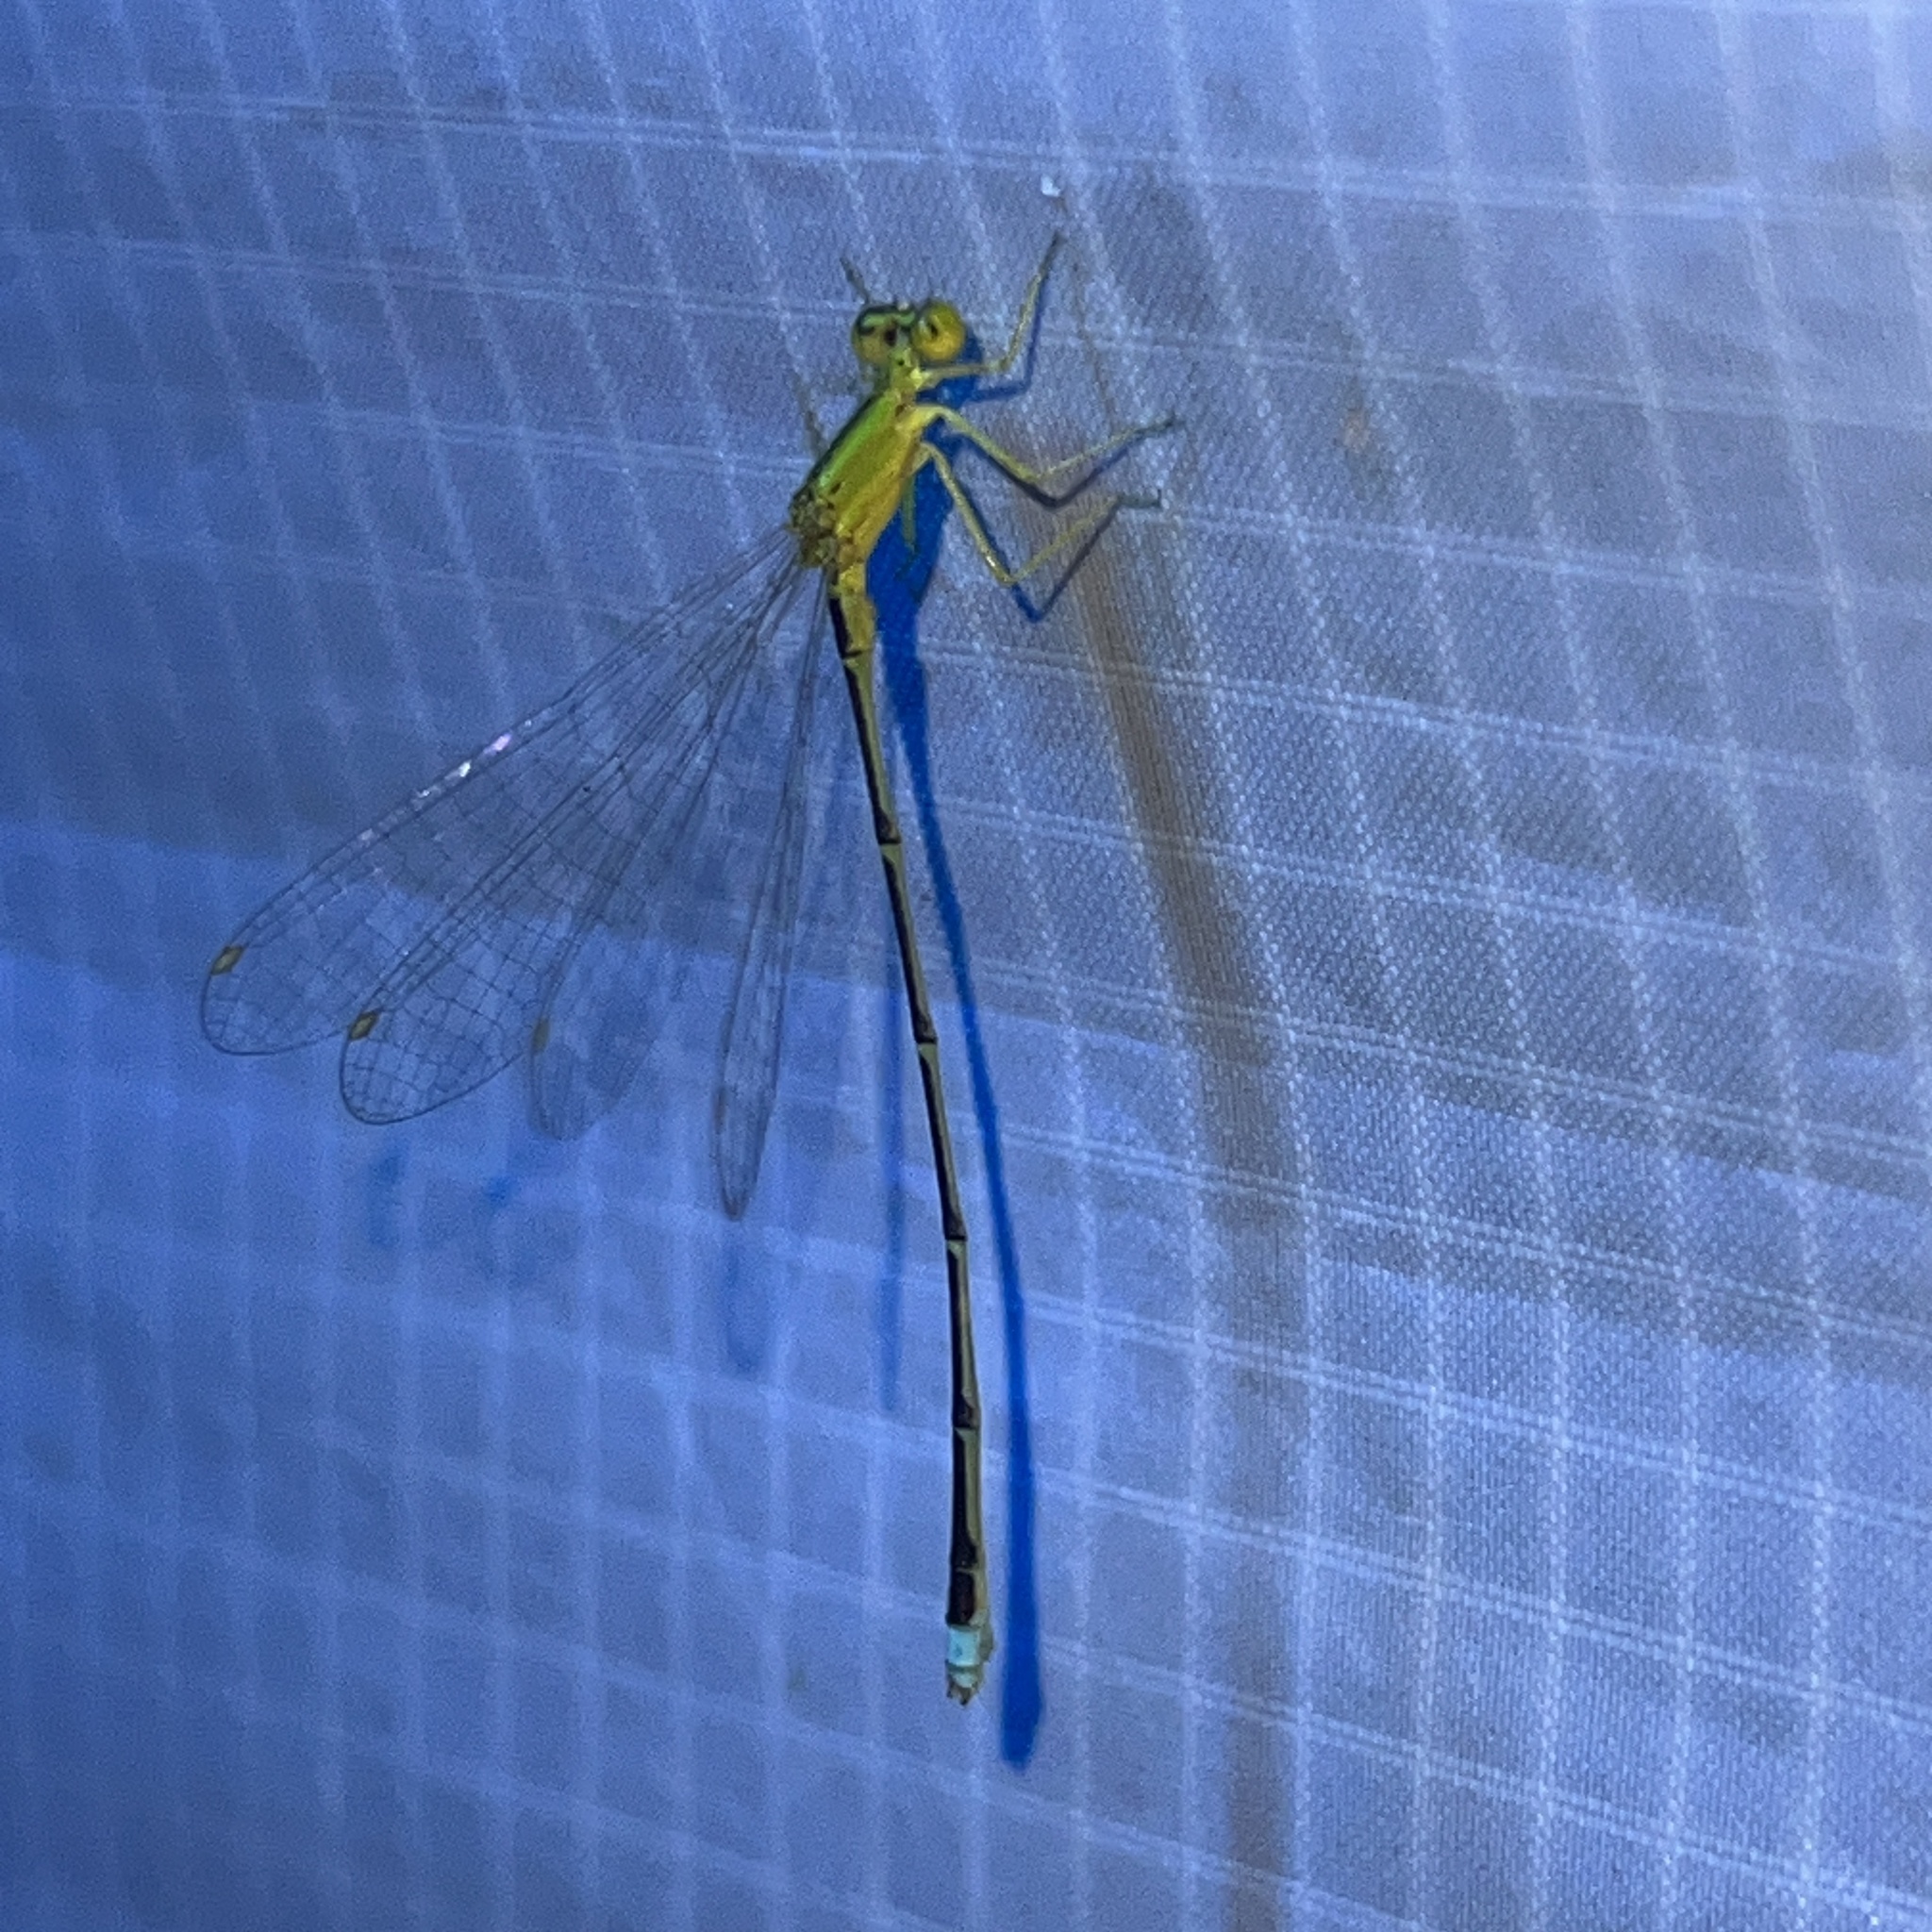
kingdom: Animalia
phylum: Arthropoda
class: Insecta
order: Odonata
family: Coenagrionidae
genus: Enallagma
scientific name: Enallagma vesperum
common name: Vesper bluet
